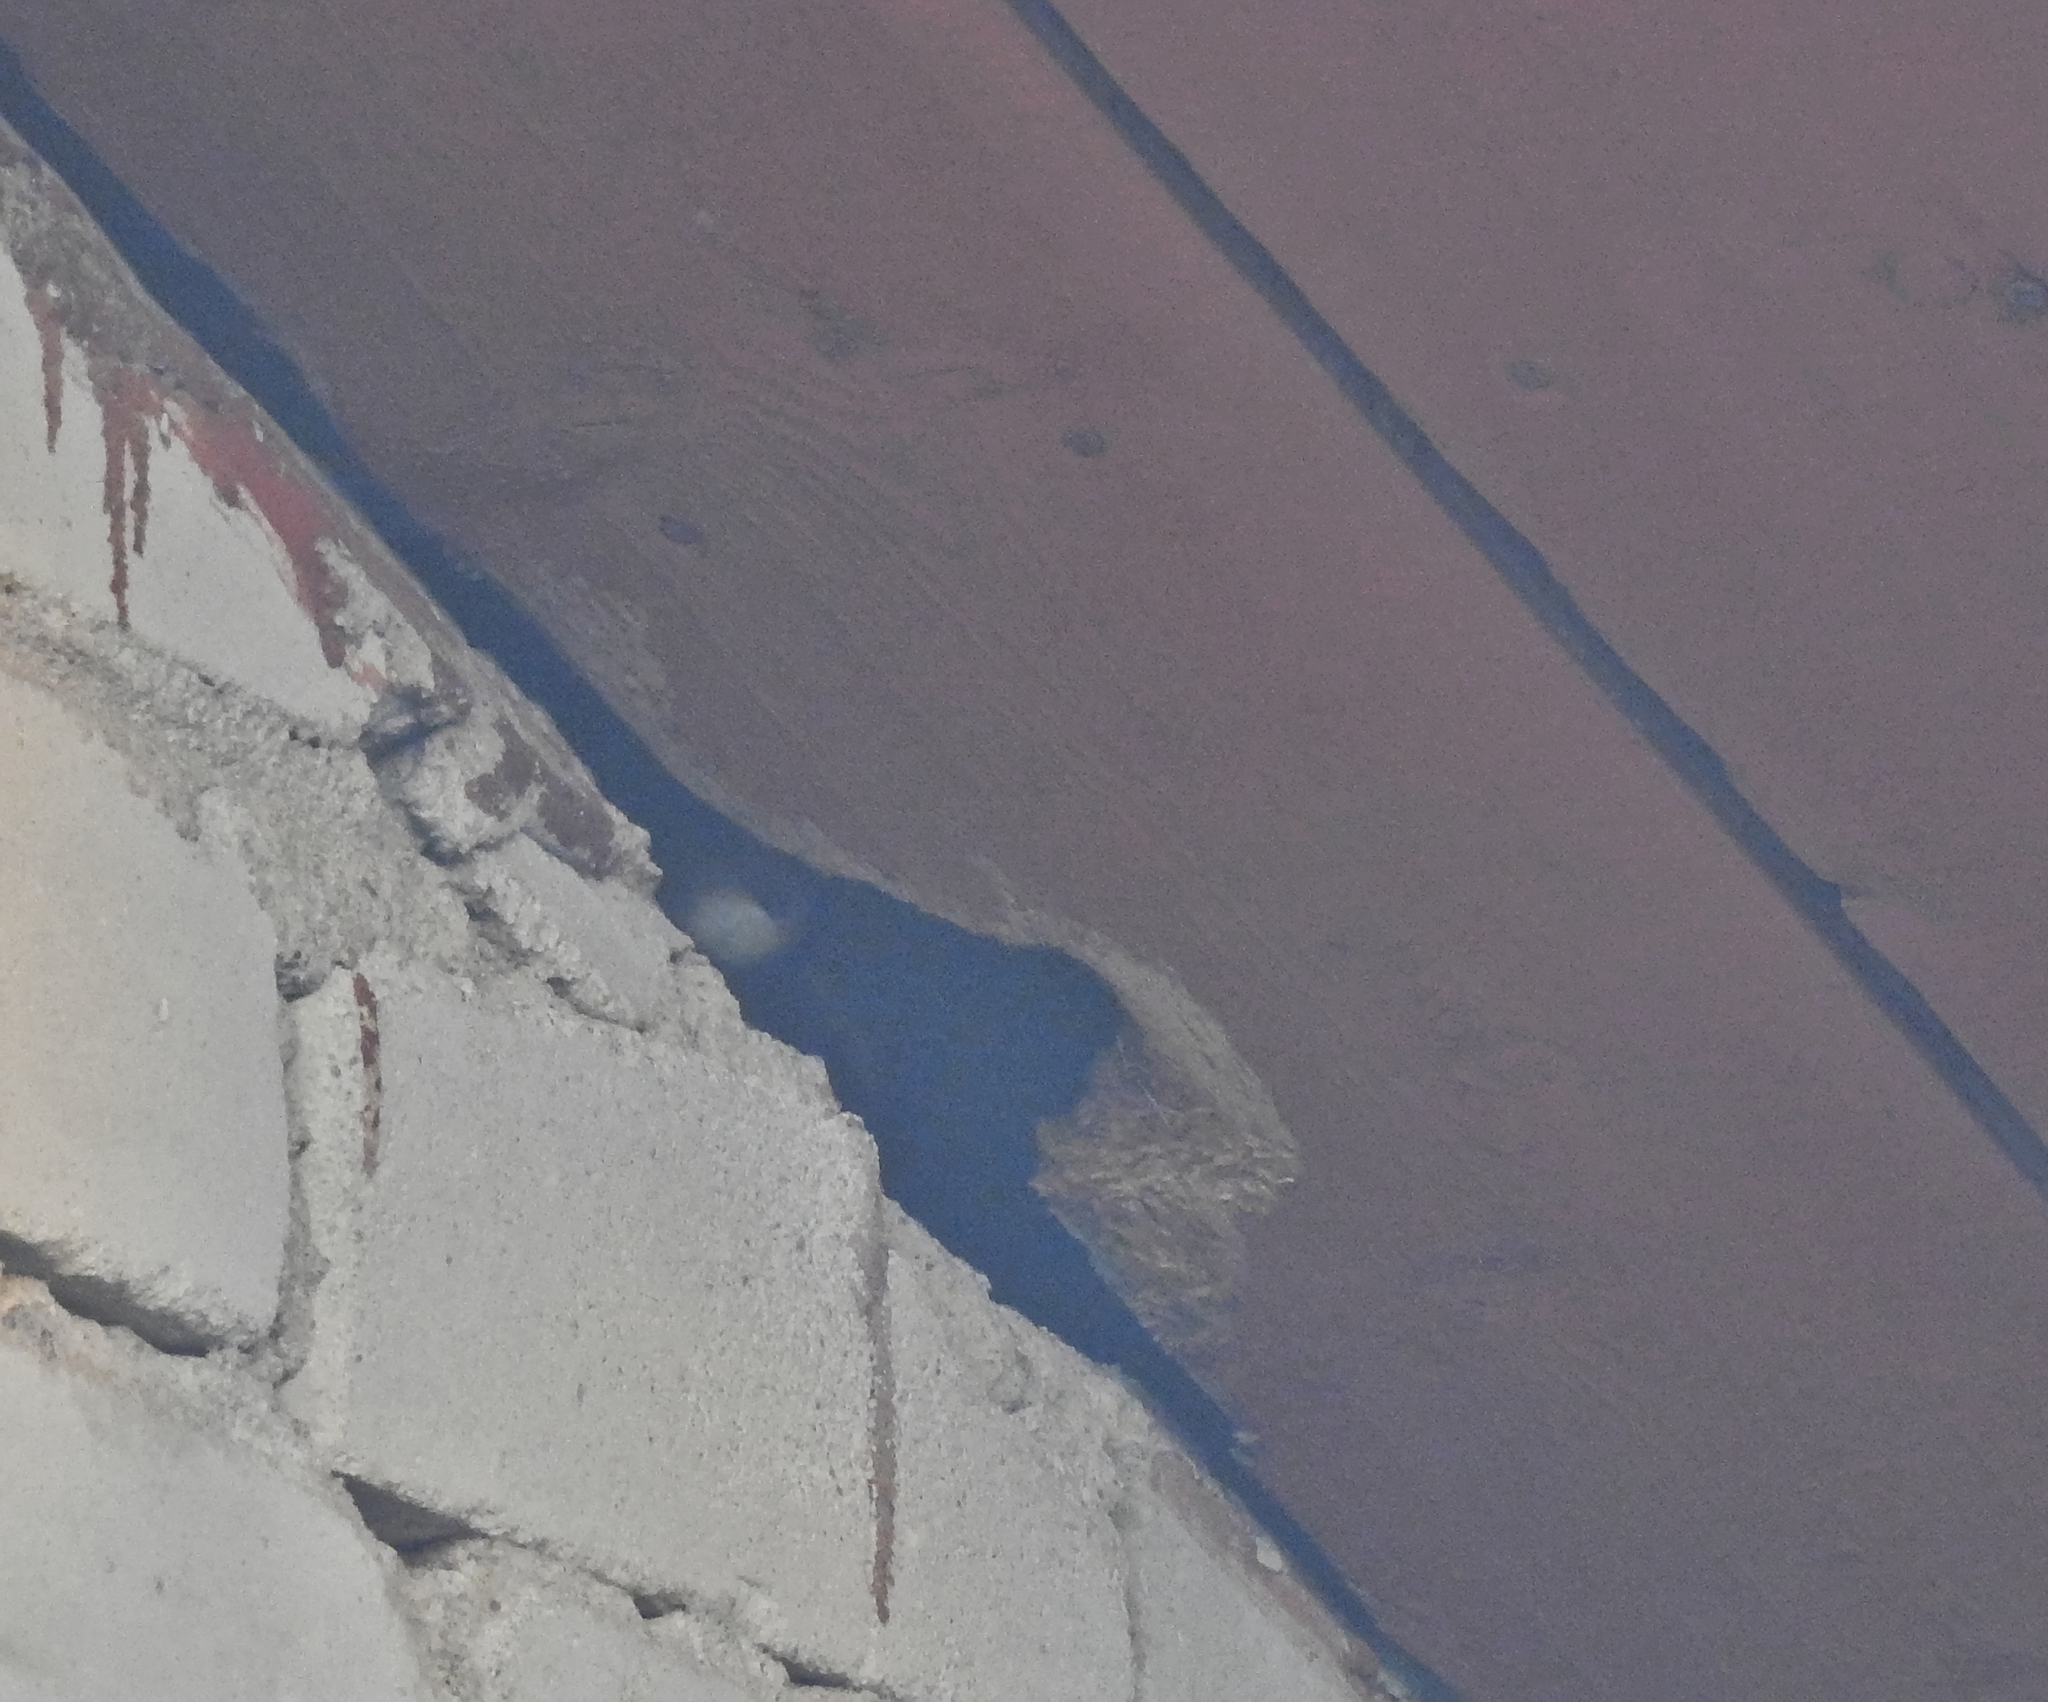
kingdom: Animalia
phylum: Chordata
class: Aves
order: Apodiformes
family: Apodidae
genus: Apus
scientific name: Apus apus
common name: Common swift
